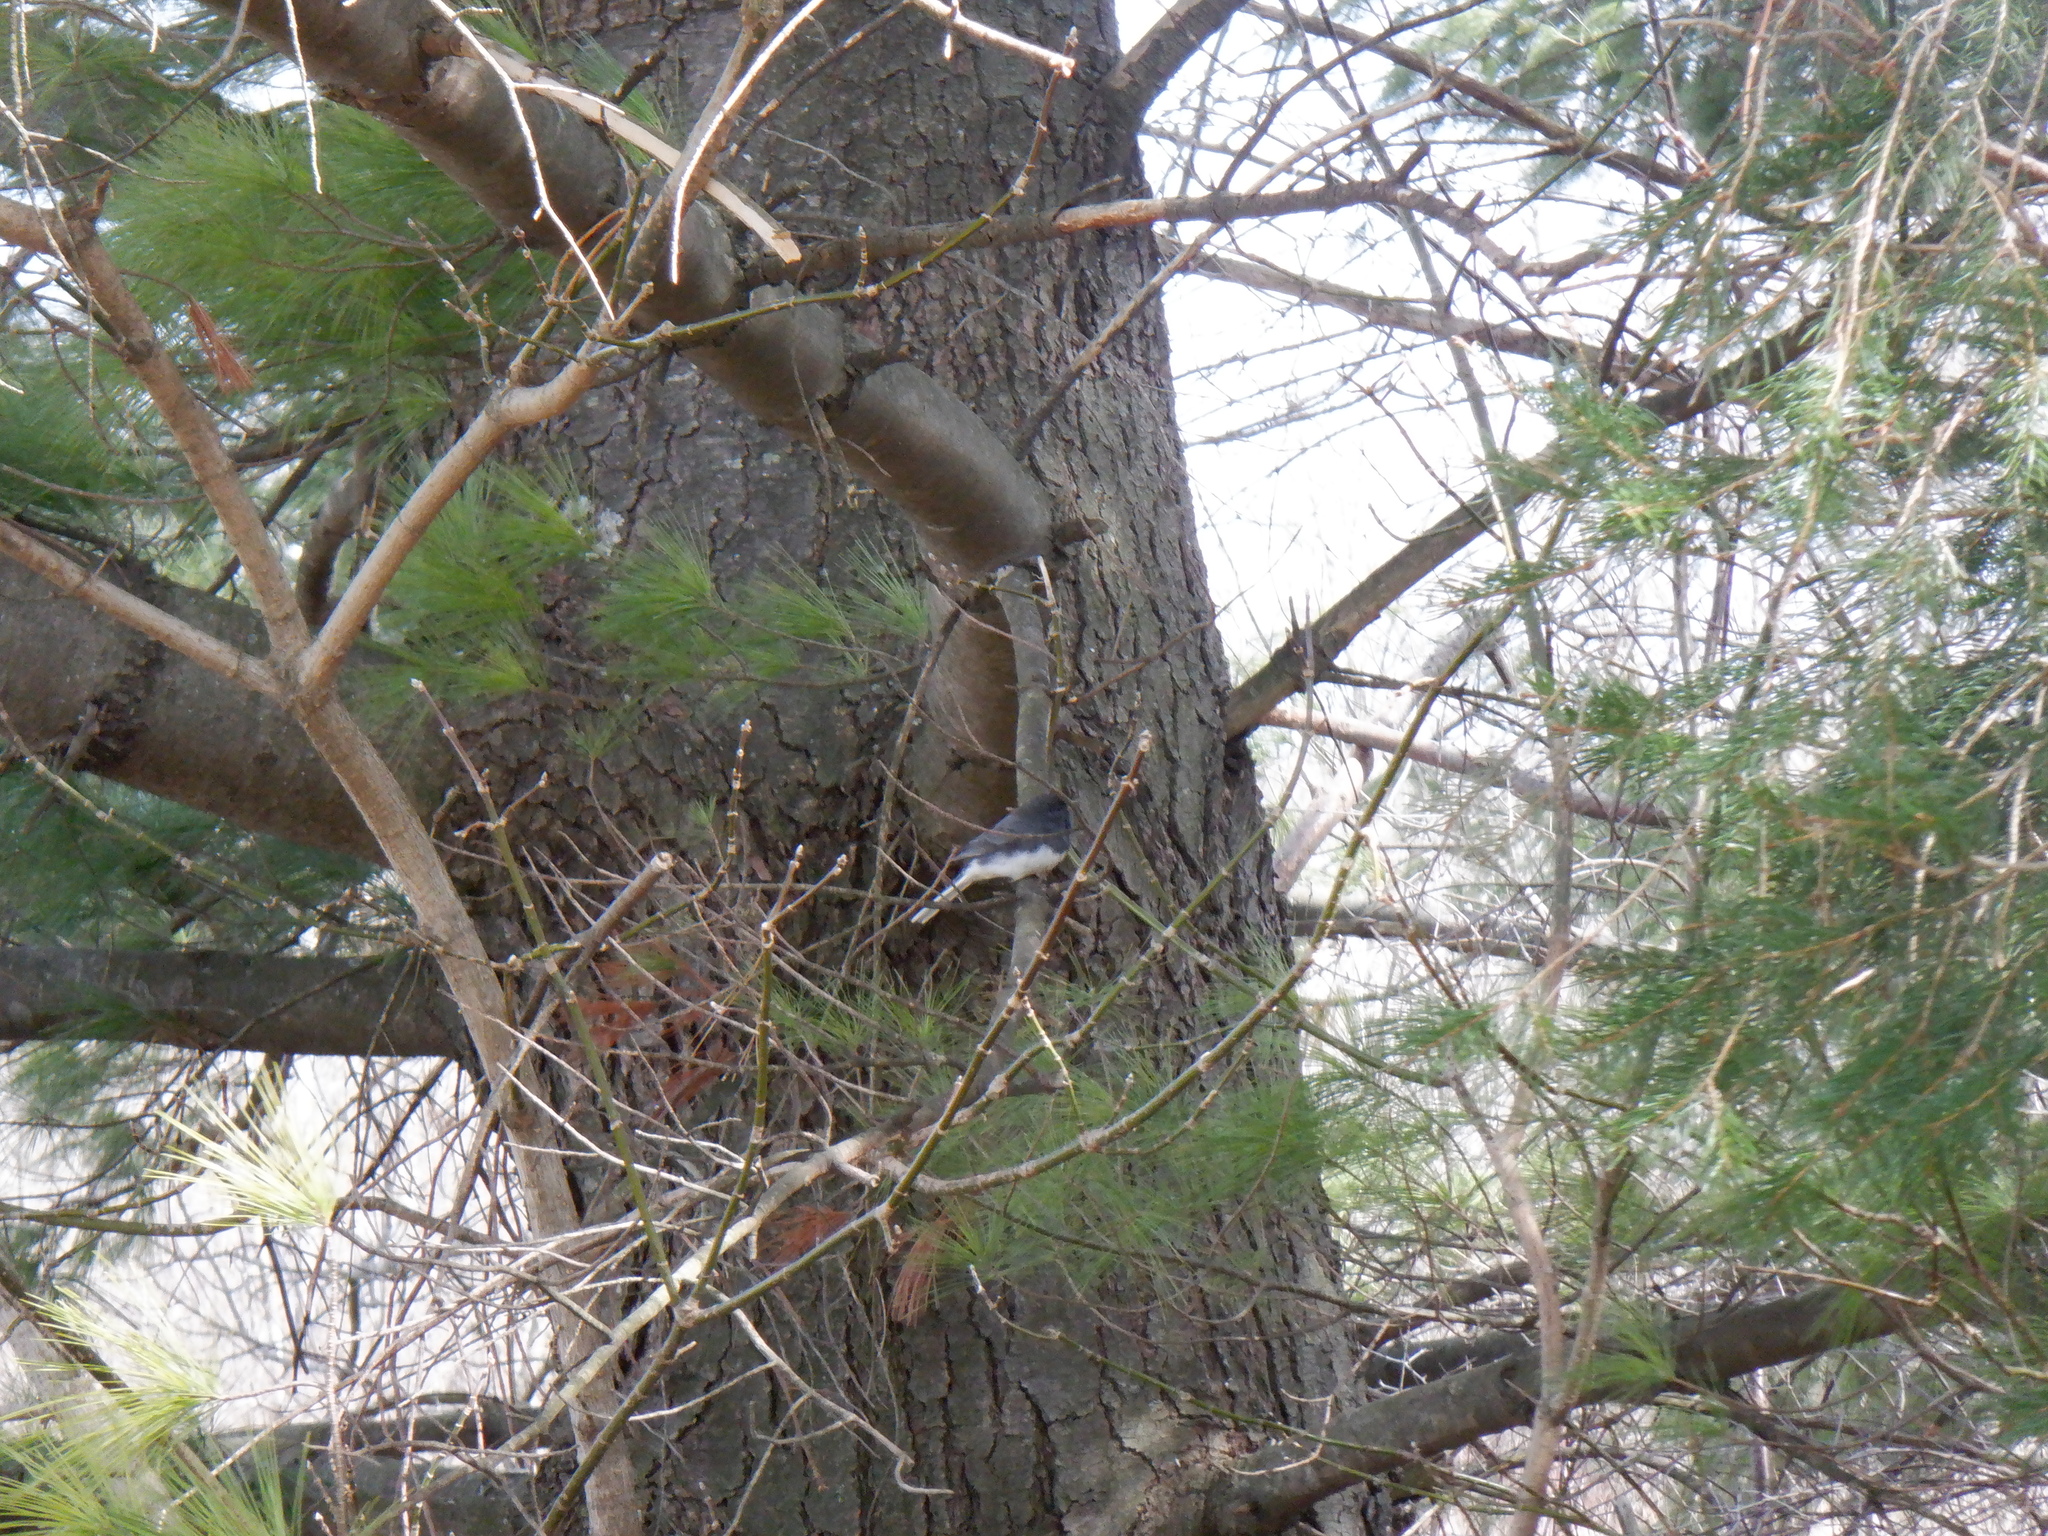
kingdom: Animalia
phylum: Chordata
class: Aves
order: Passeriformes
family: Passerellidae
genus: Junco
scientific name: Junco hyemalis
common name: Dark-eyed junco
